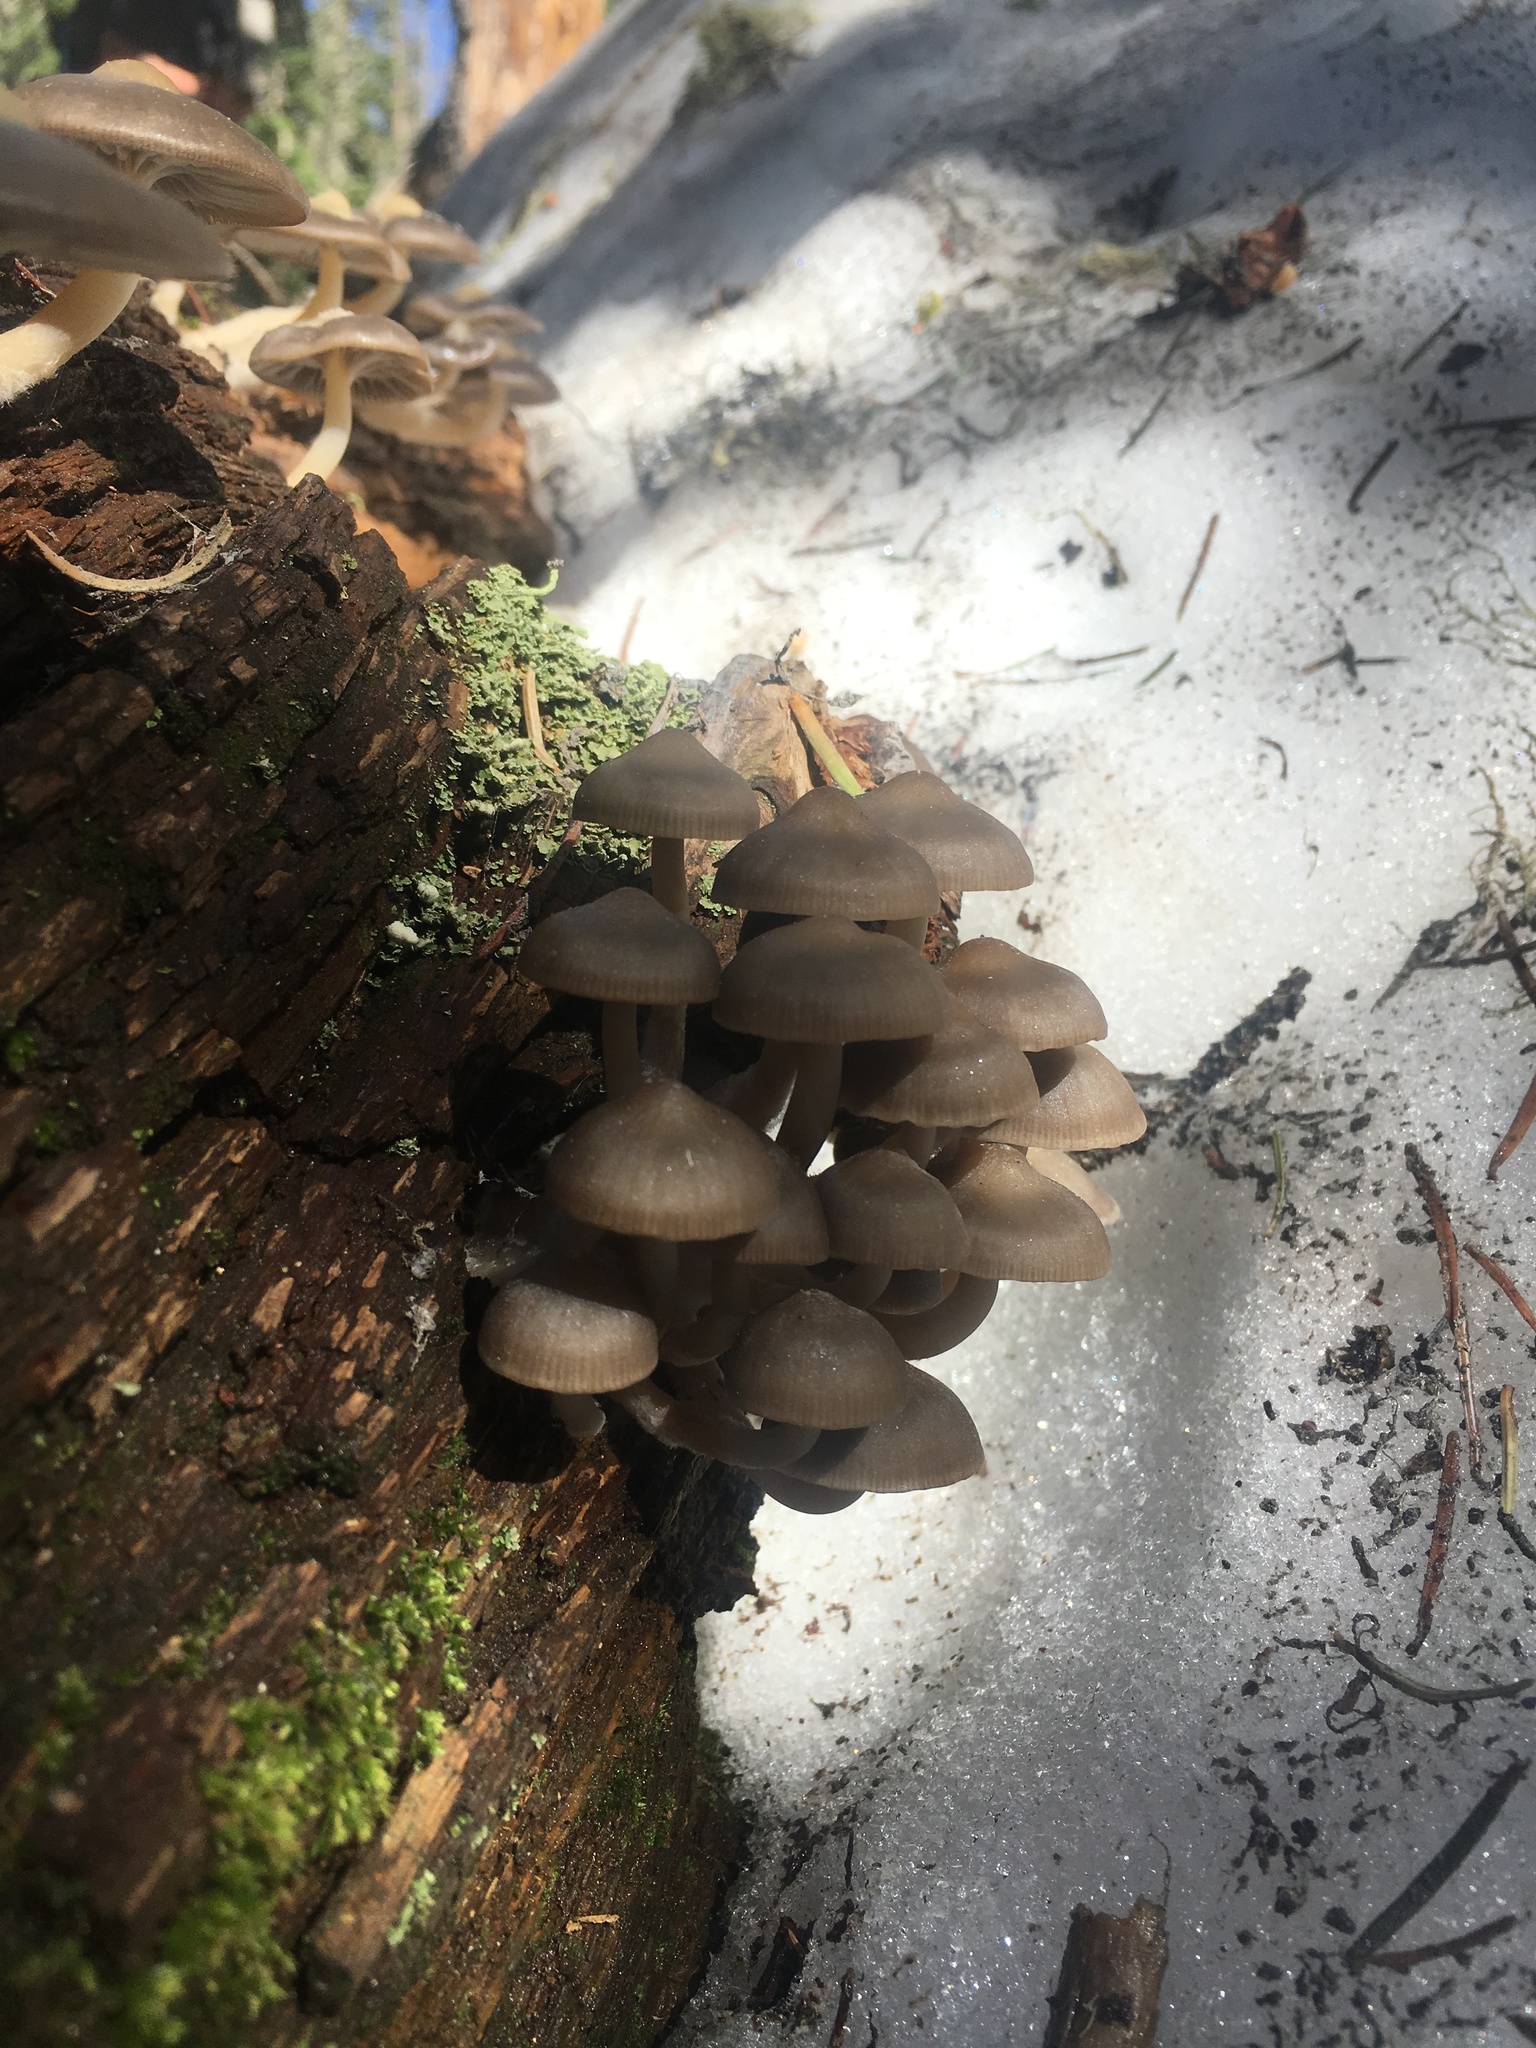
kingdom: Fungi
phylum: Basidiomycota
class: Agaricomycetes
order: Agaricales
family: Mycenaceae
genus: Mycena
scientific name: Mycena overholtsii
